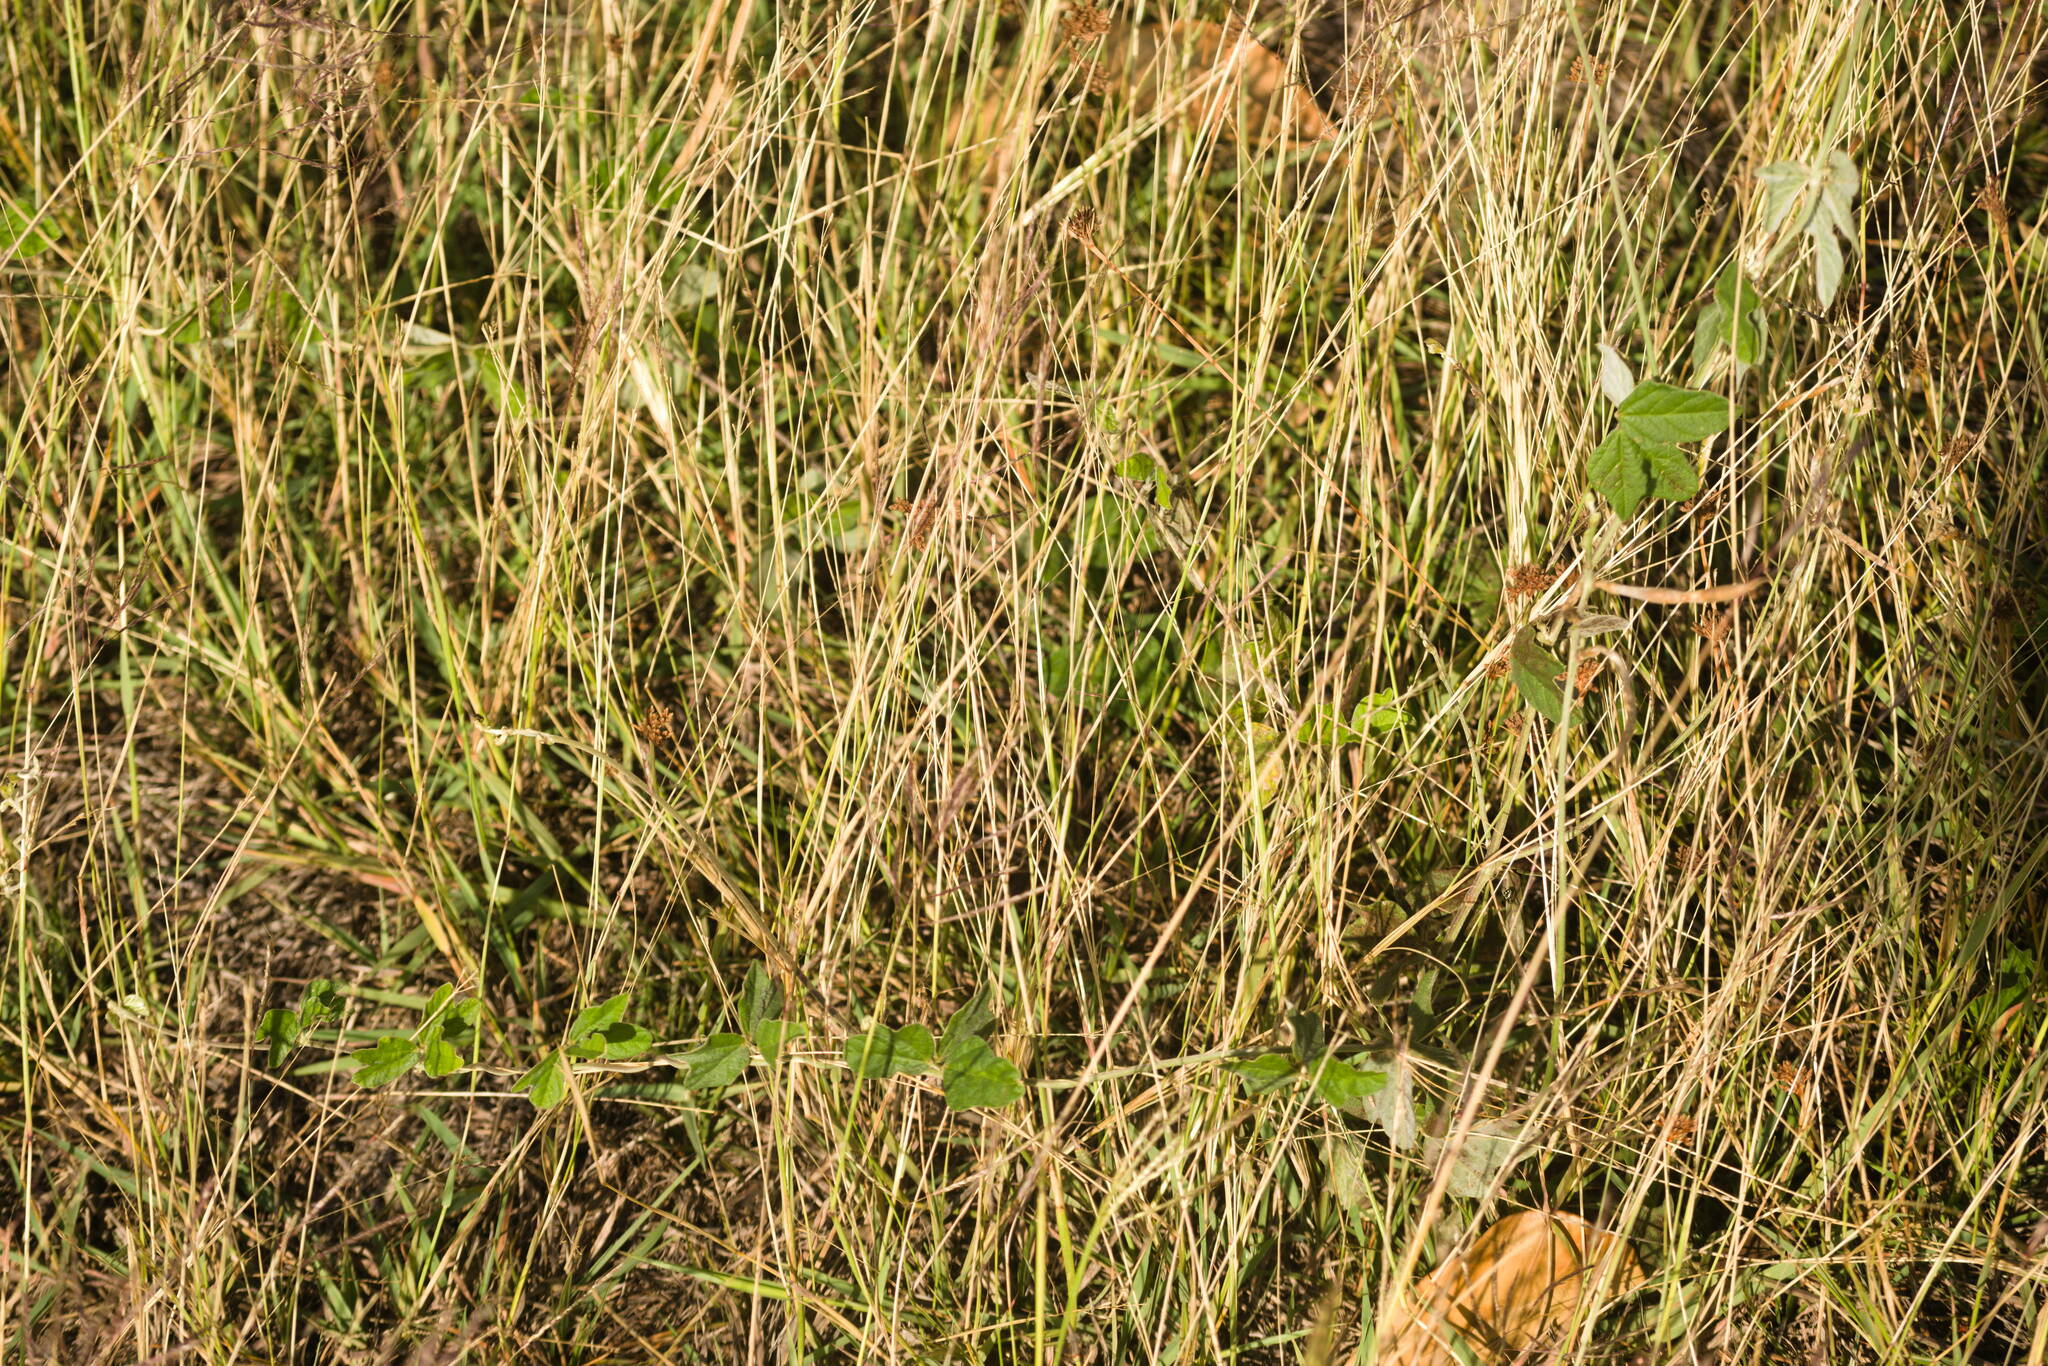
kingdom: Plantae
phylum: Tracheophyta
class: Magnoliopsida
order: Fabales
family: Fabaceae
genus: Macroptilium
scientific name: Macroptilium atropurpureum
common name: Purple bushbean
